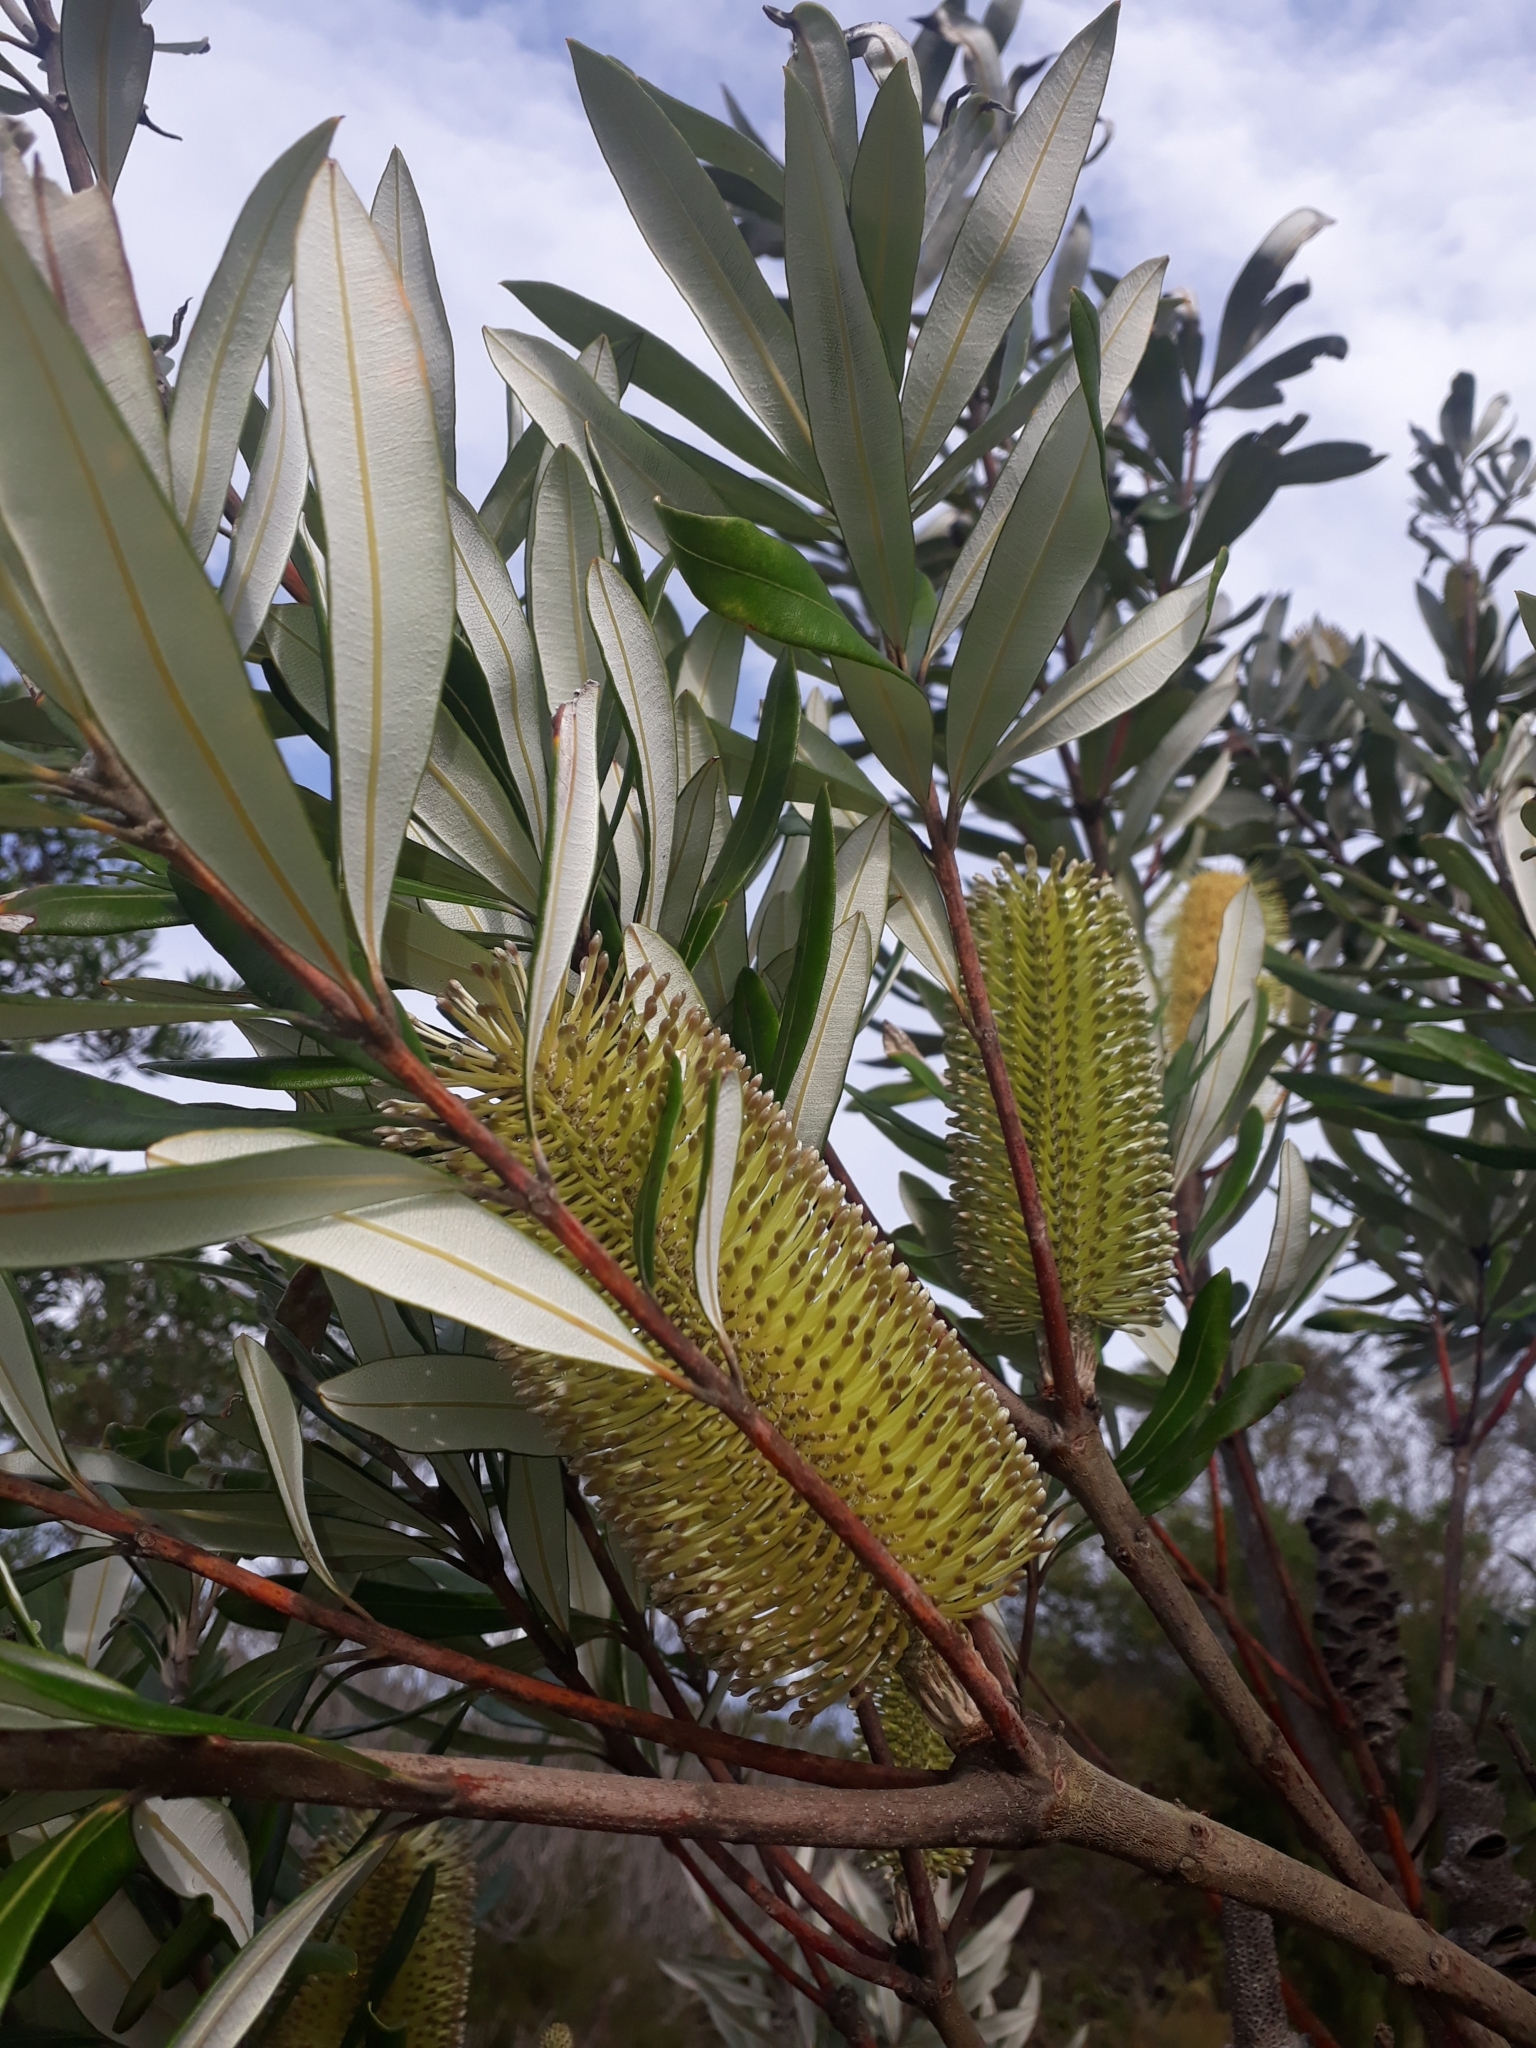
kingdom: Plantae
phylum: Tracheophyta
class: Magnoliopsida
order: Proteales
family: Proteaceae
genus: Banksia
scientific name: Banksia integrifolia
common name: White-honeysuckle
